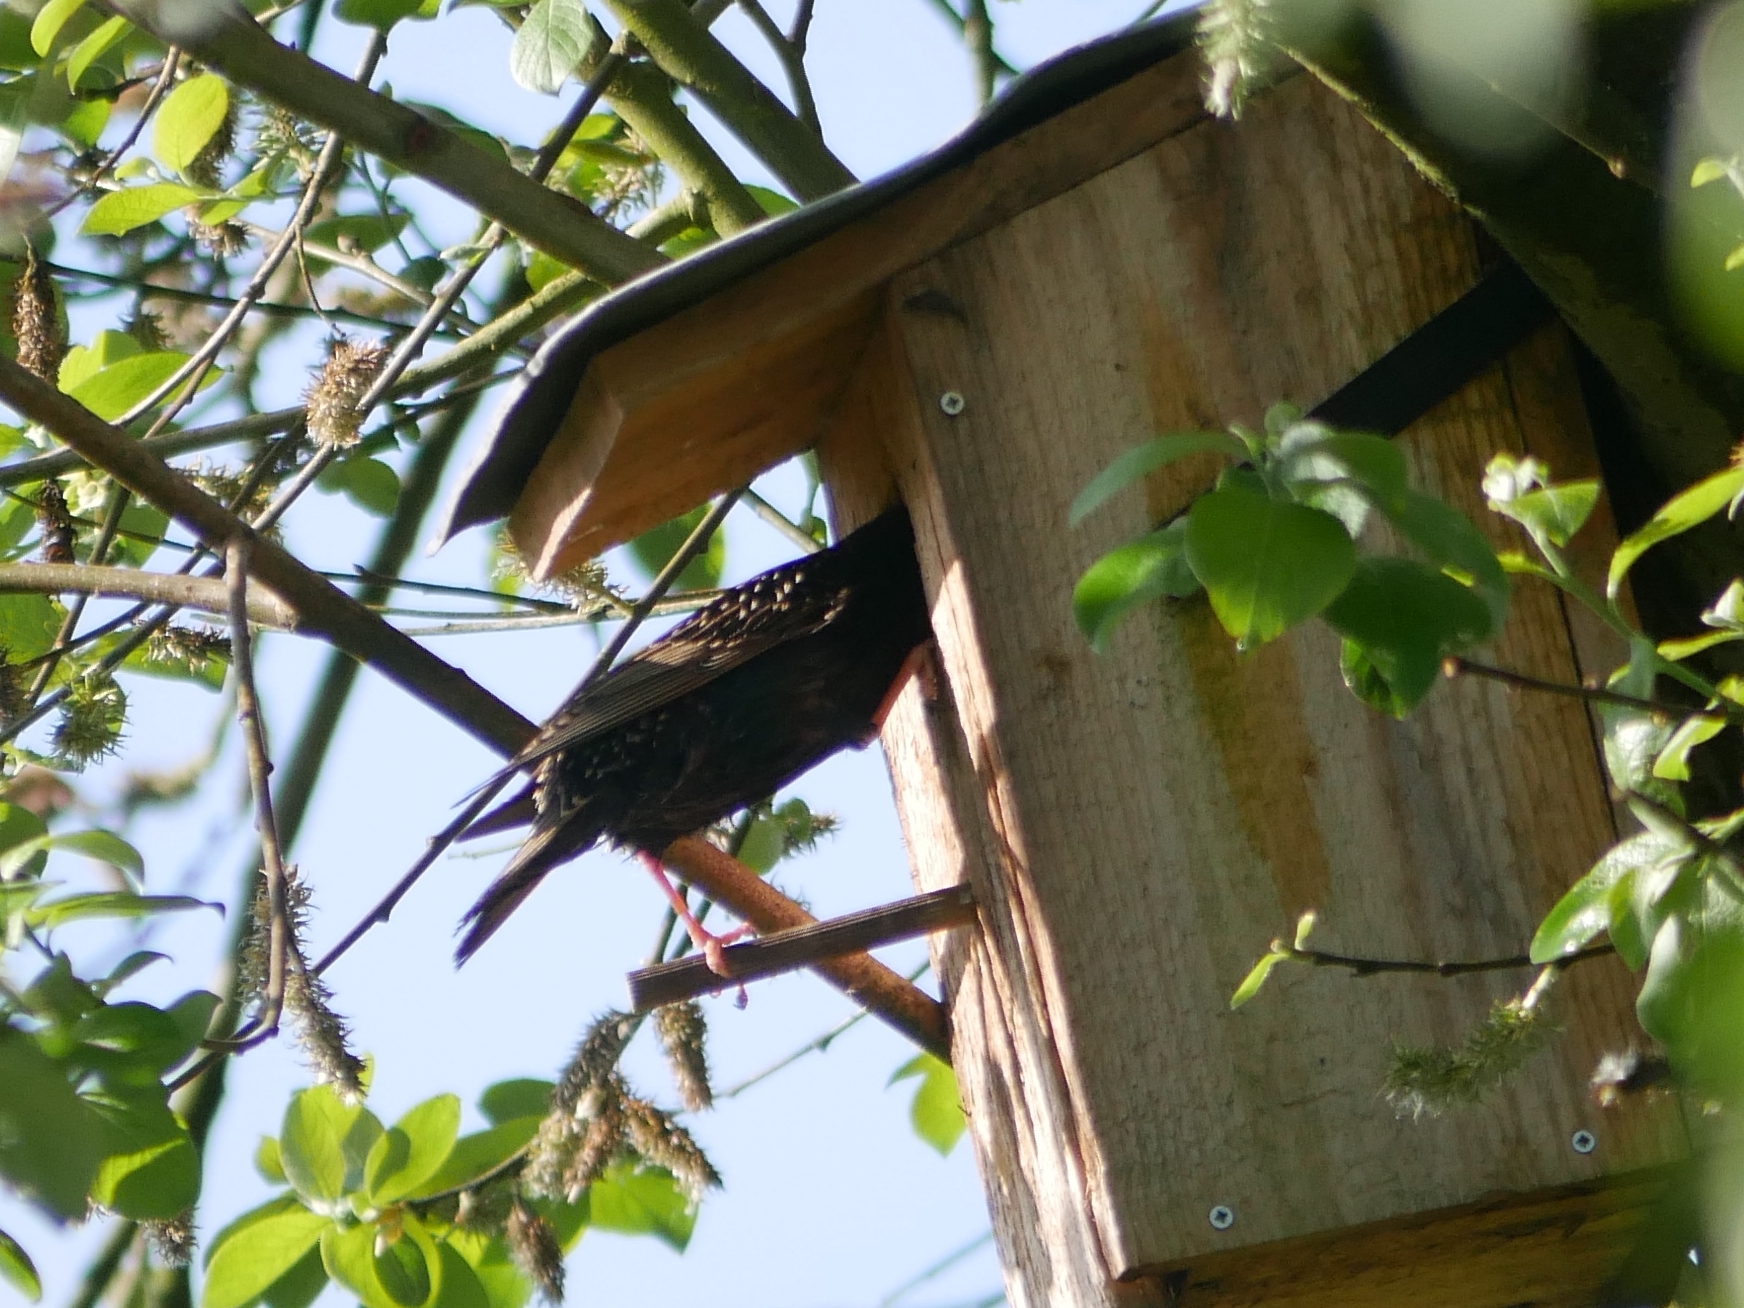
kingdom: Animalia
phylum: Chordata
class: Aves
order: Passeriformes
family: Sturnidae
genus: Sturnus
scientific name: Sturnus vulgaris
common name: Common starling
